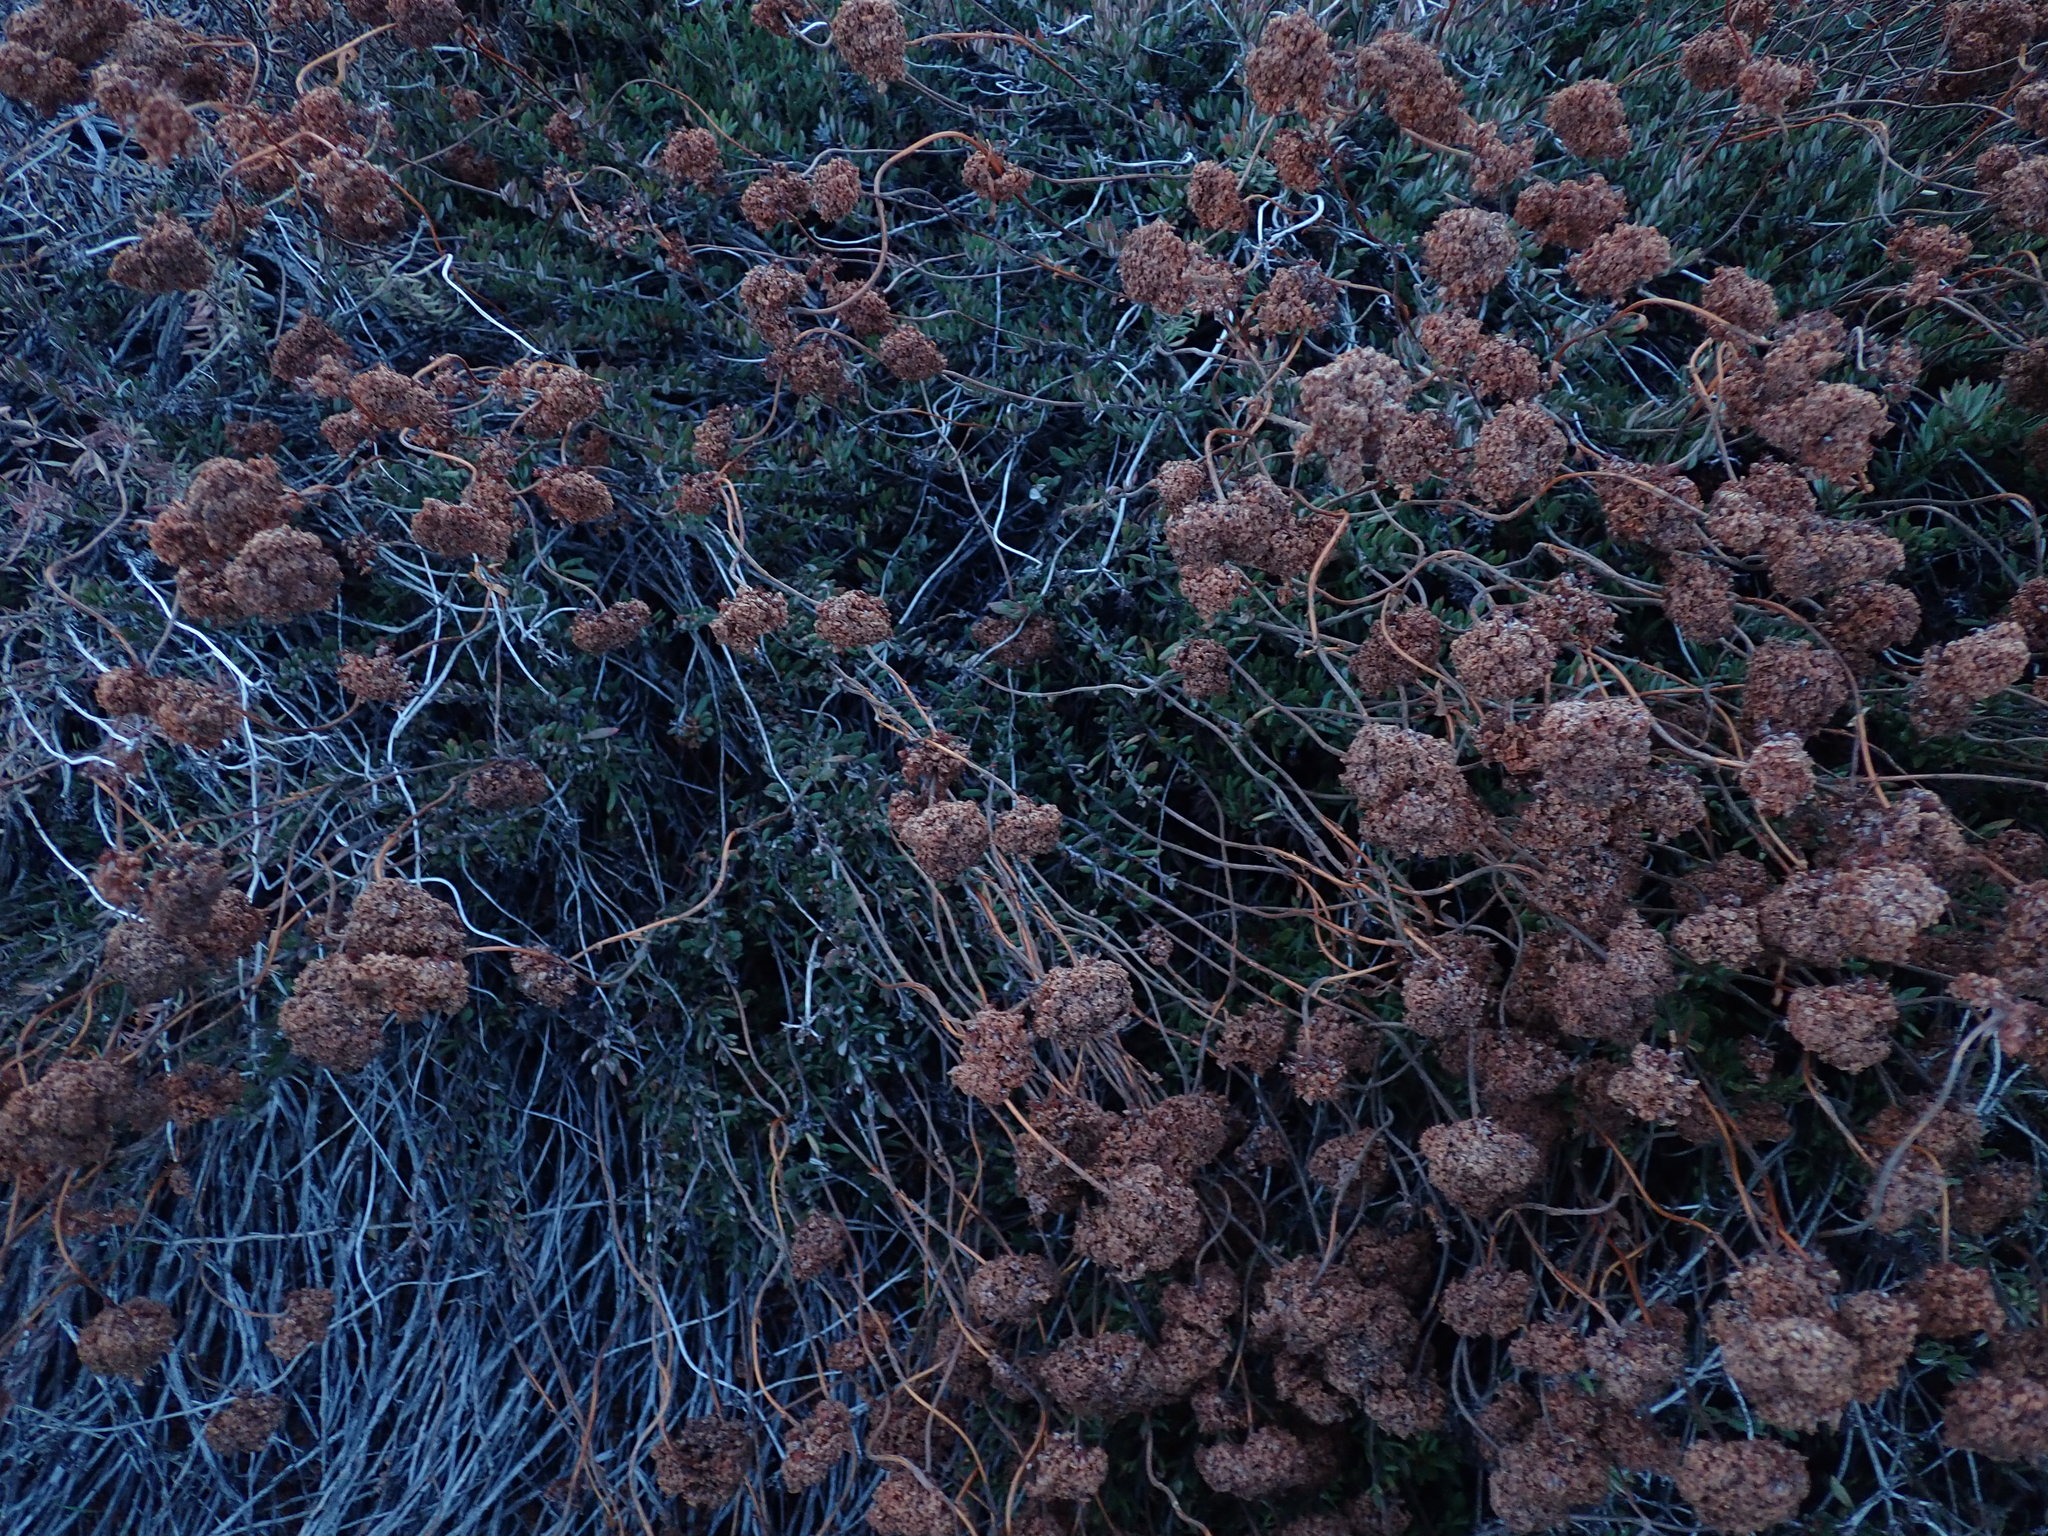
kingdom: Plantae
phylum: Tracheophyta
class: Magnoliopsida
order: Caryophyllales
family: Polygonaceae
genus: Eriogonum
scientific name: Eriogonum fasciculatum
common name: California wild buckwheat
